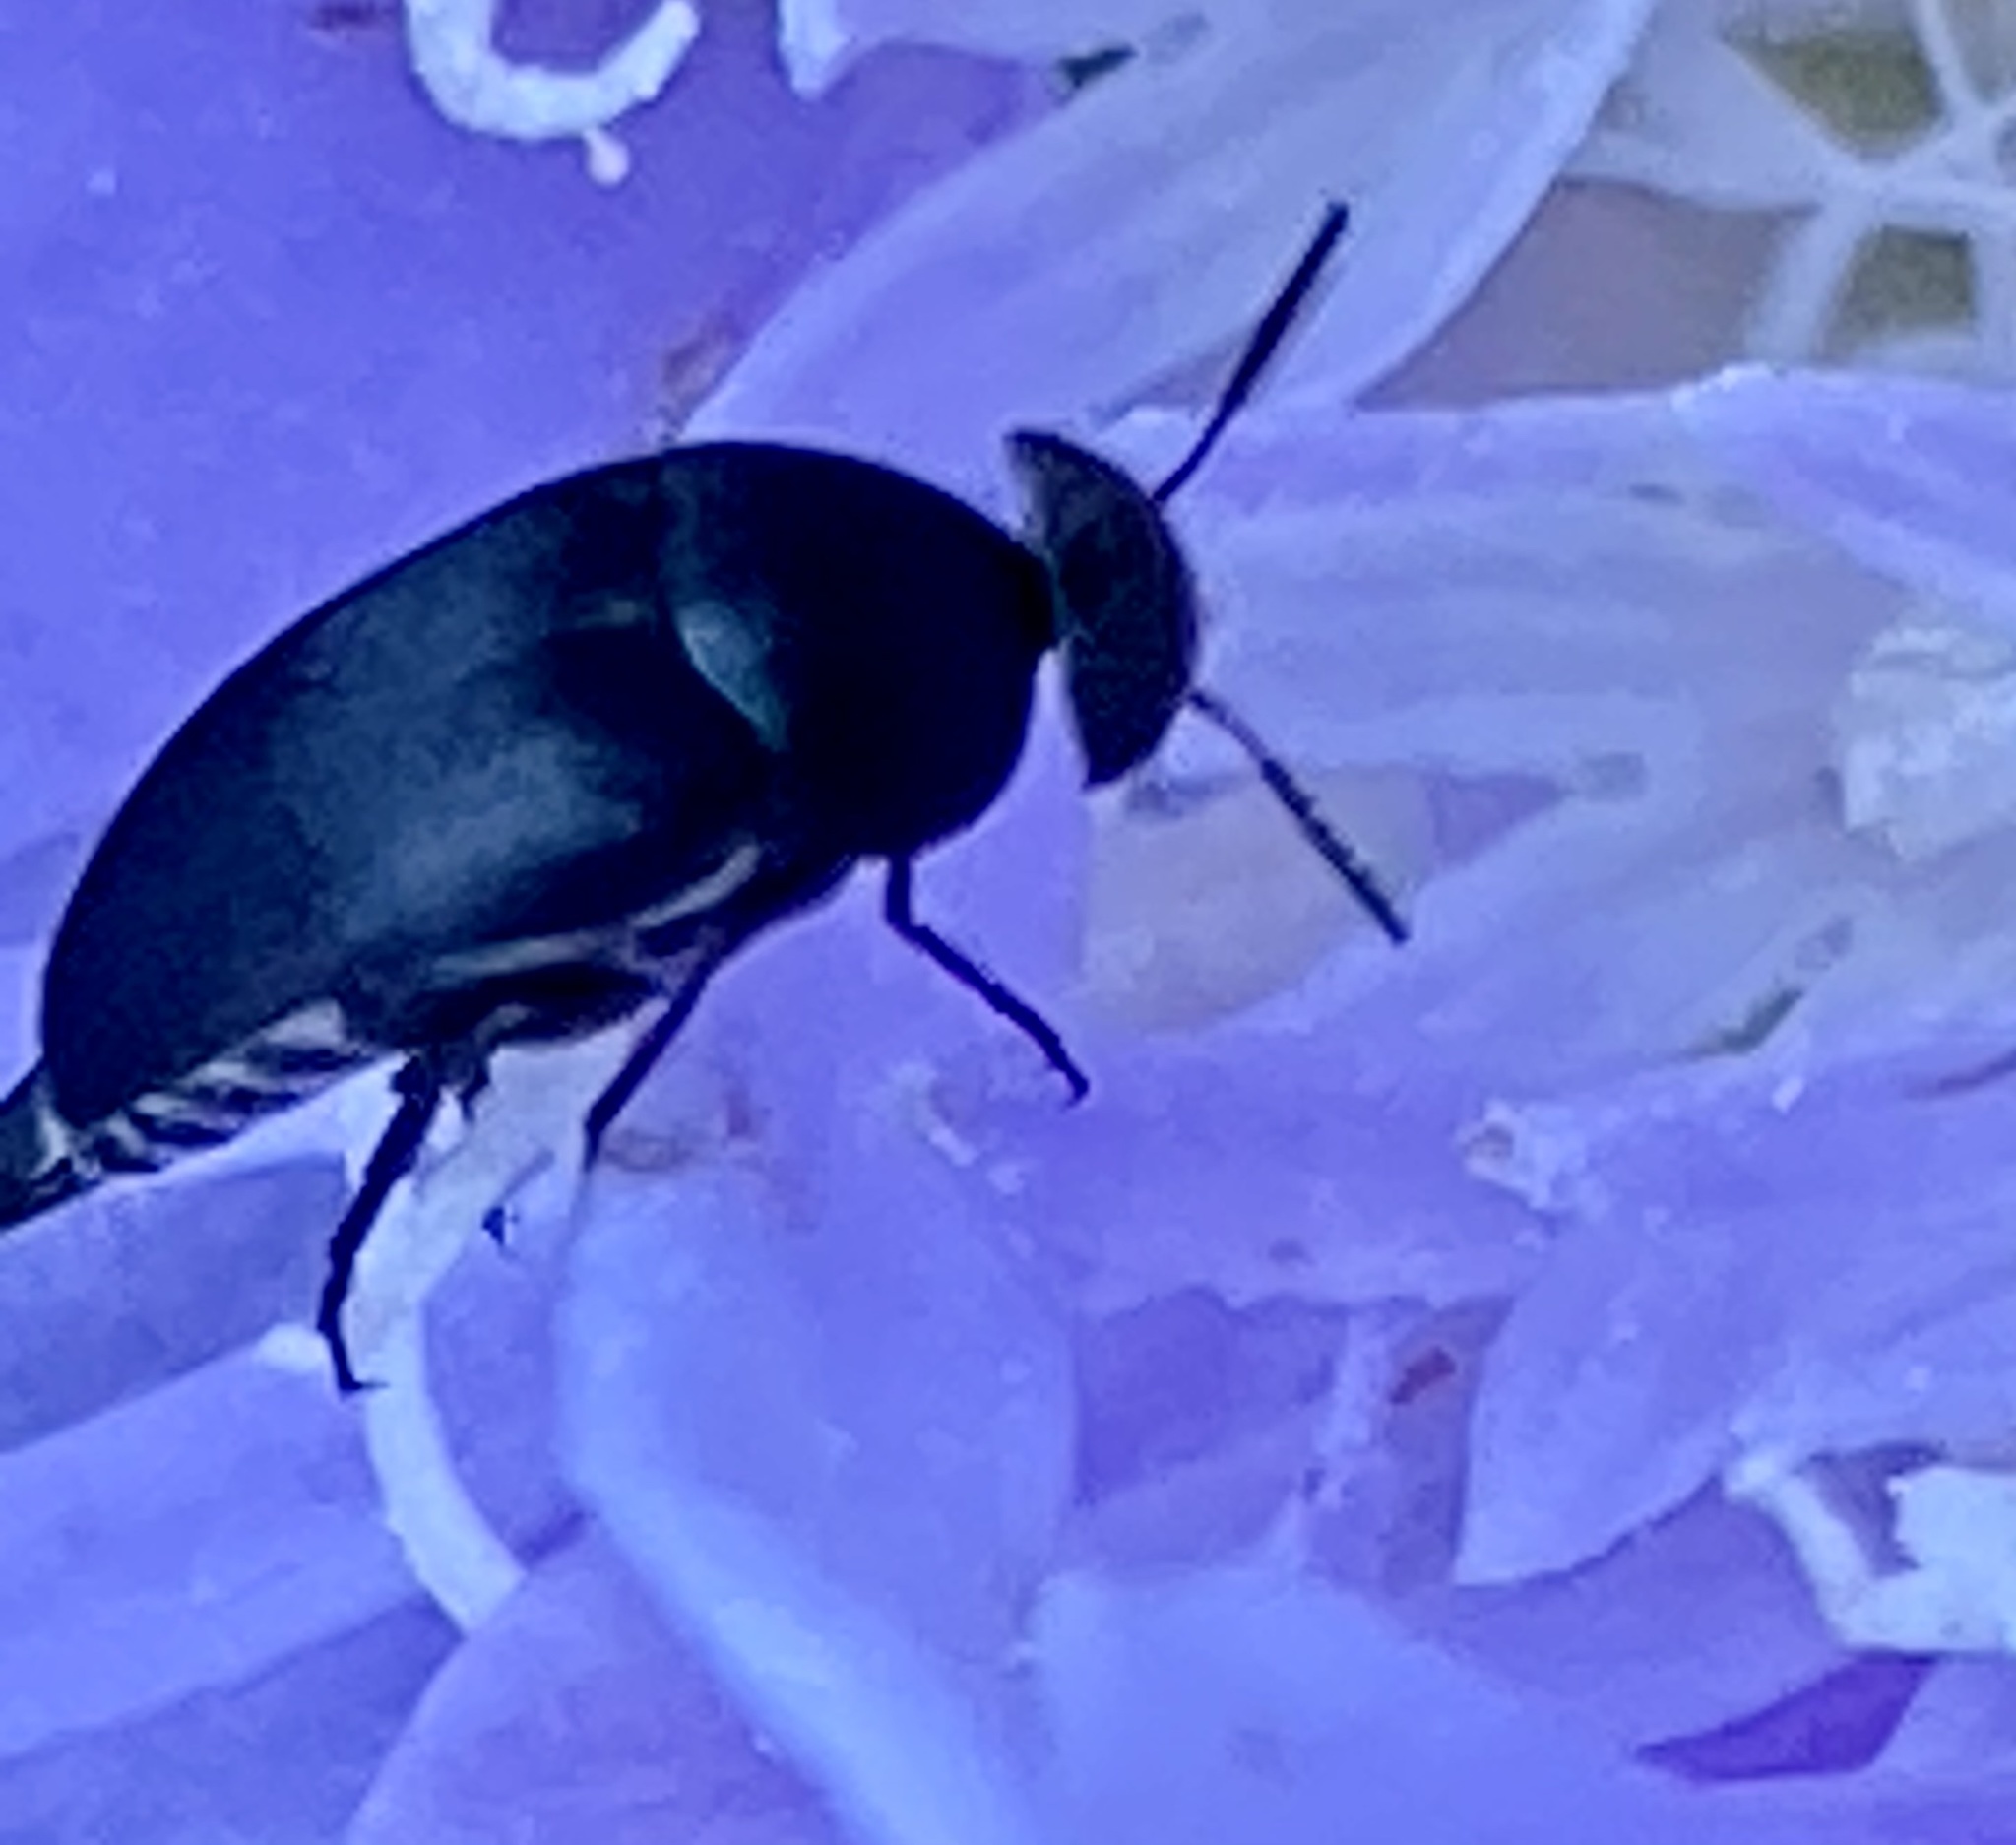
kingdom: Animalia
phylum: Arthropoda
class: Insecta
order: Coleoptera
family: Mordellidae
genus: Mordella
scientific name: Mordella atrata
